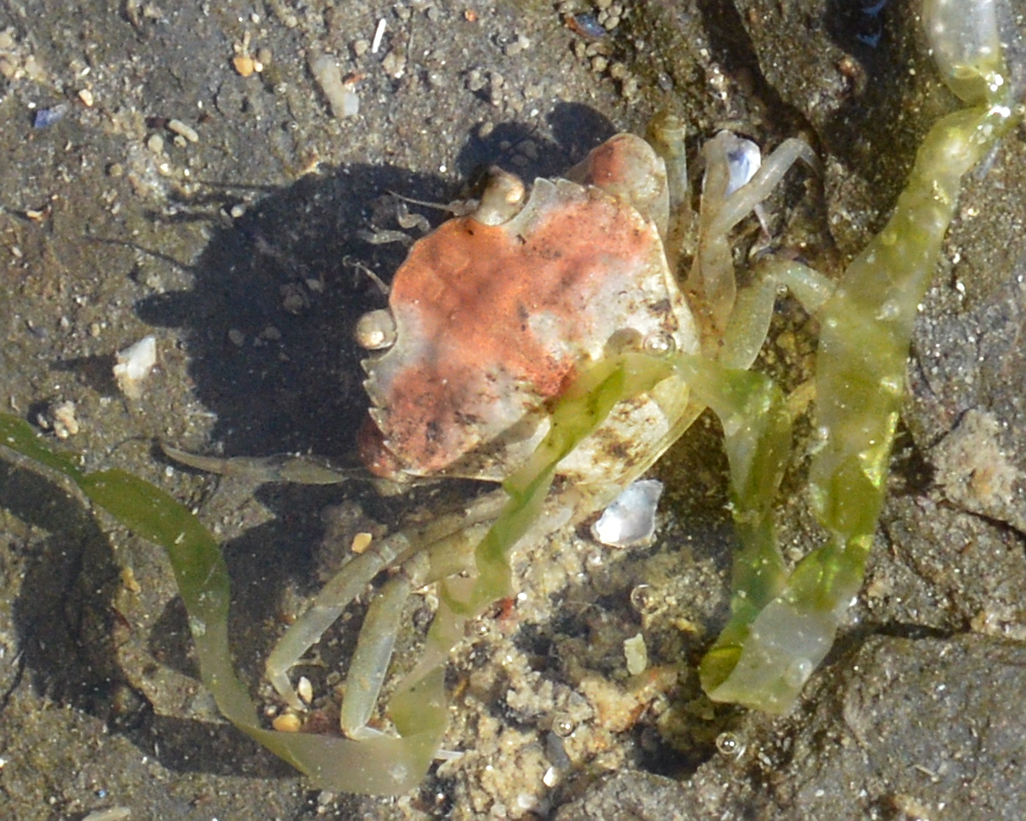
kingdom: Animalia
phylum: Arthropoda
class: Malacostraca
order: Decapoda
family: Carcinidae
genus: Carcinus
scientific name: Carcinus maenas
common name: European green crab
